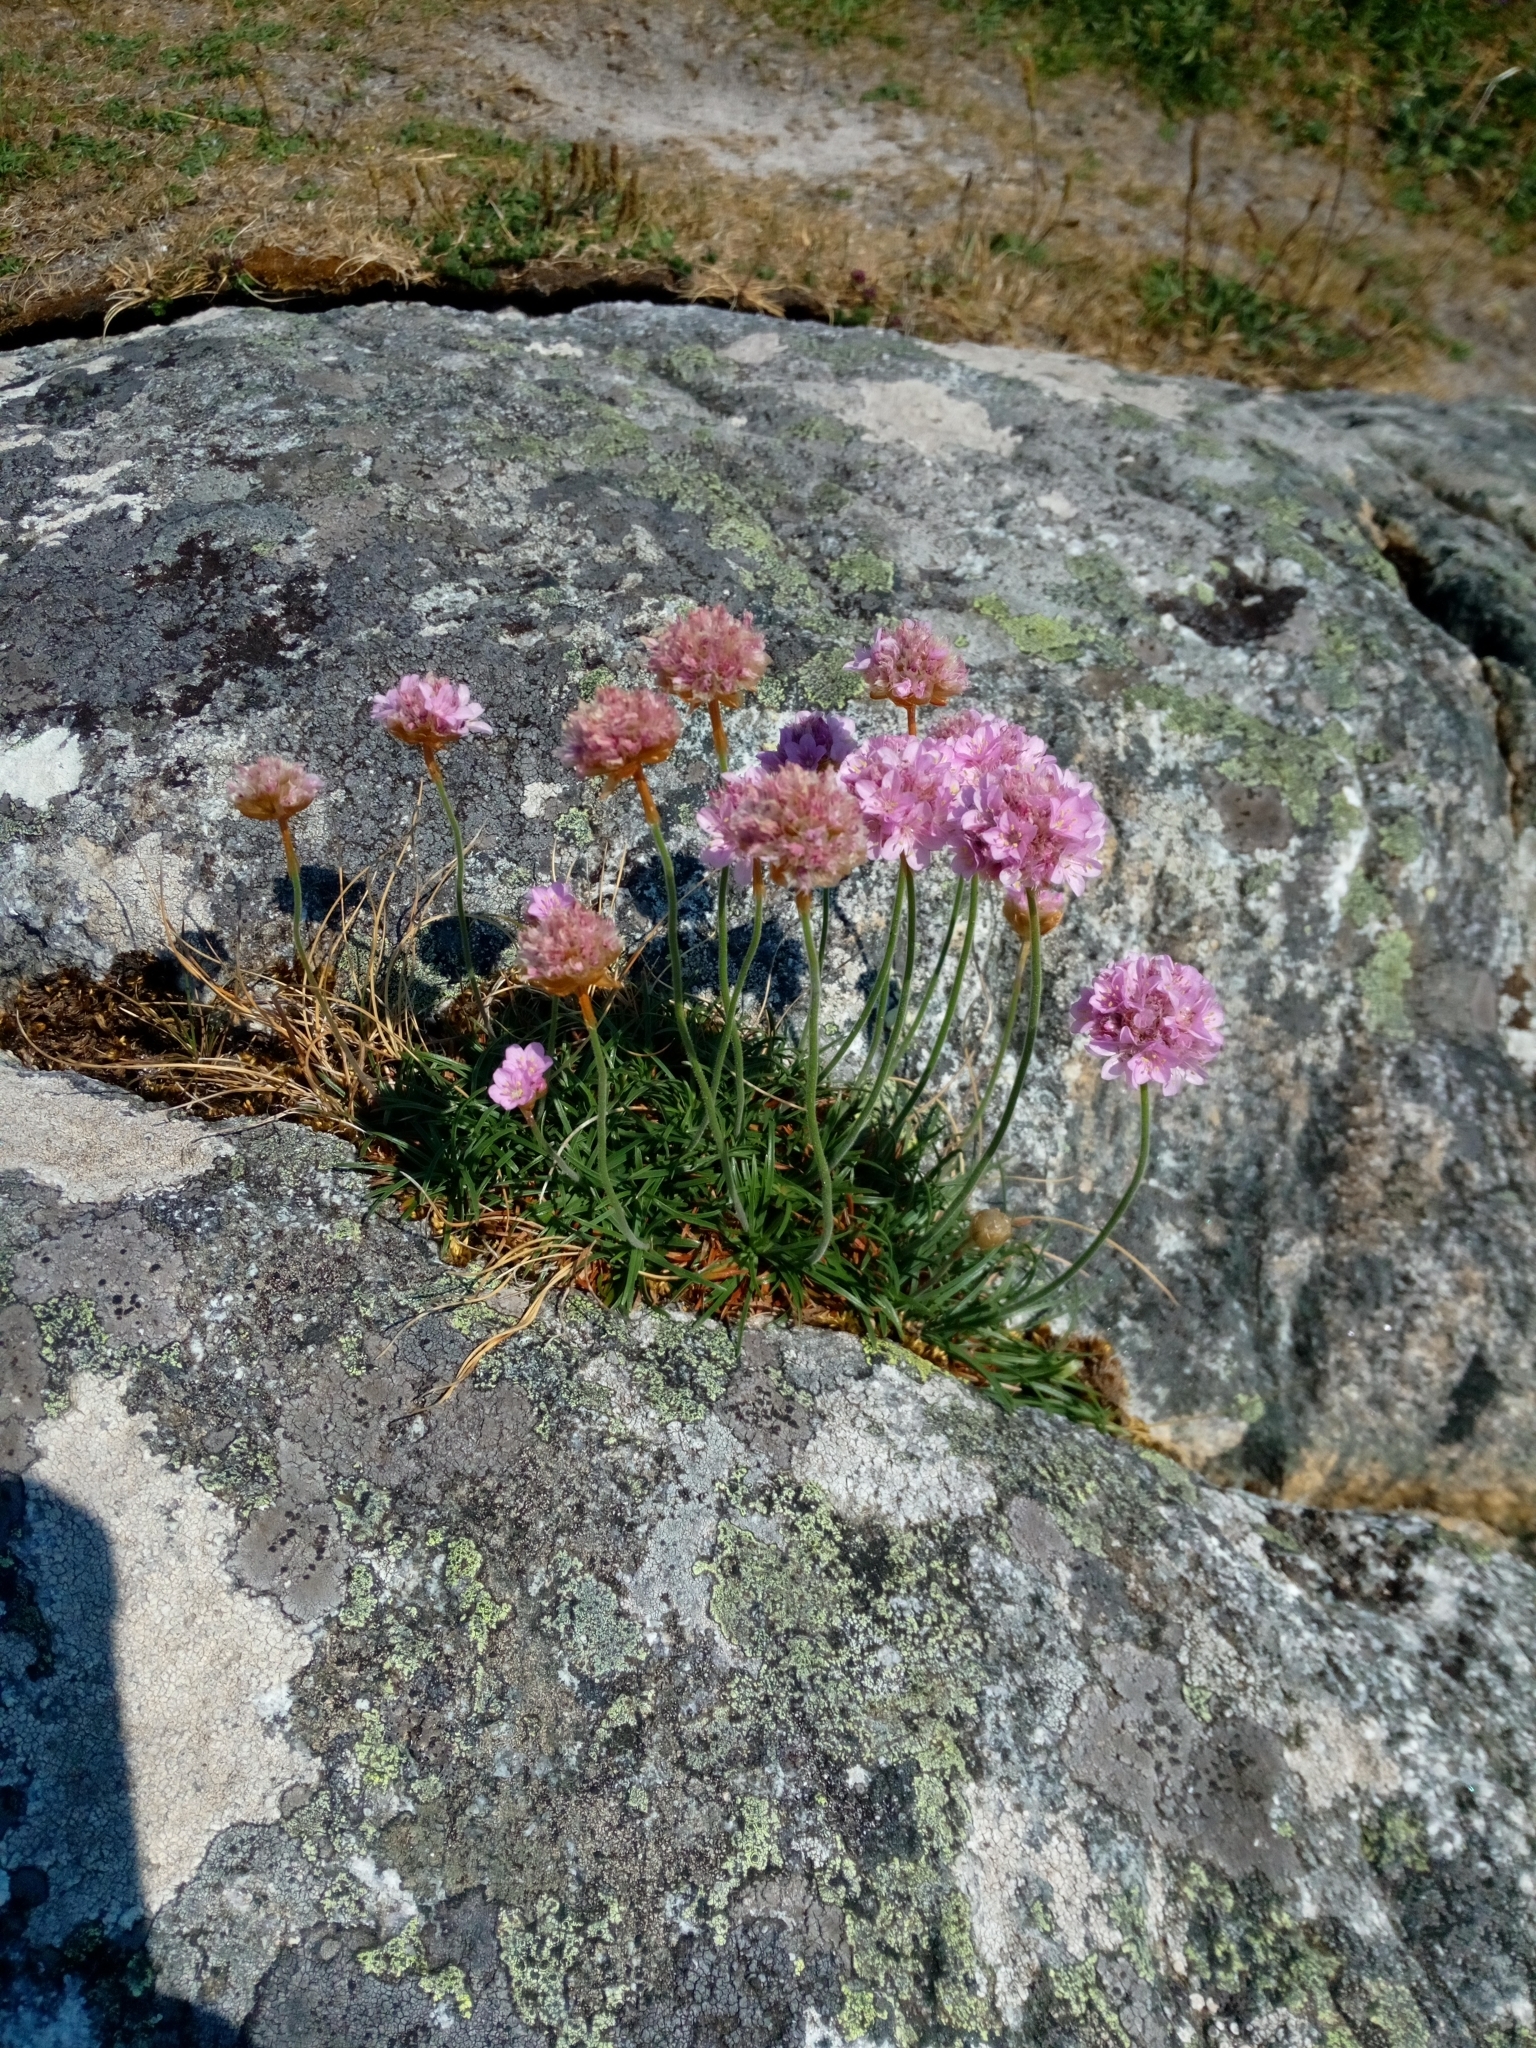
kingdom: Plantae
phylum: Tracheophyta
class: Magnoliopsida
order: Caryophyllales
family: Plumbaginaceae
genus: Armeria
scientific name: Armeria maritima
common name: Thrift
